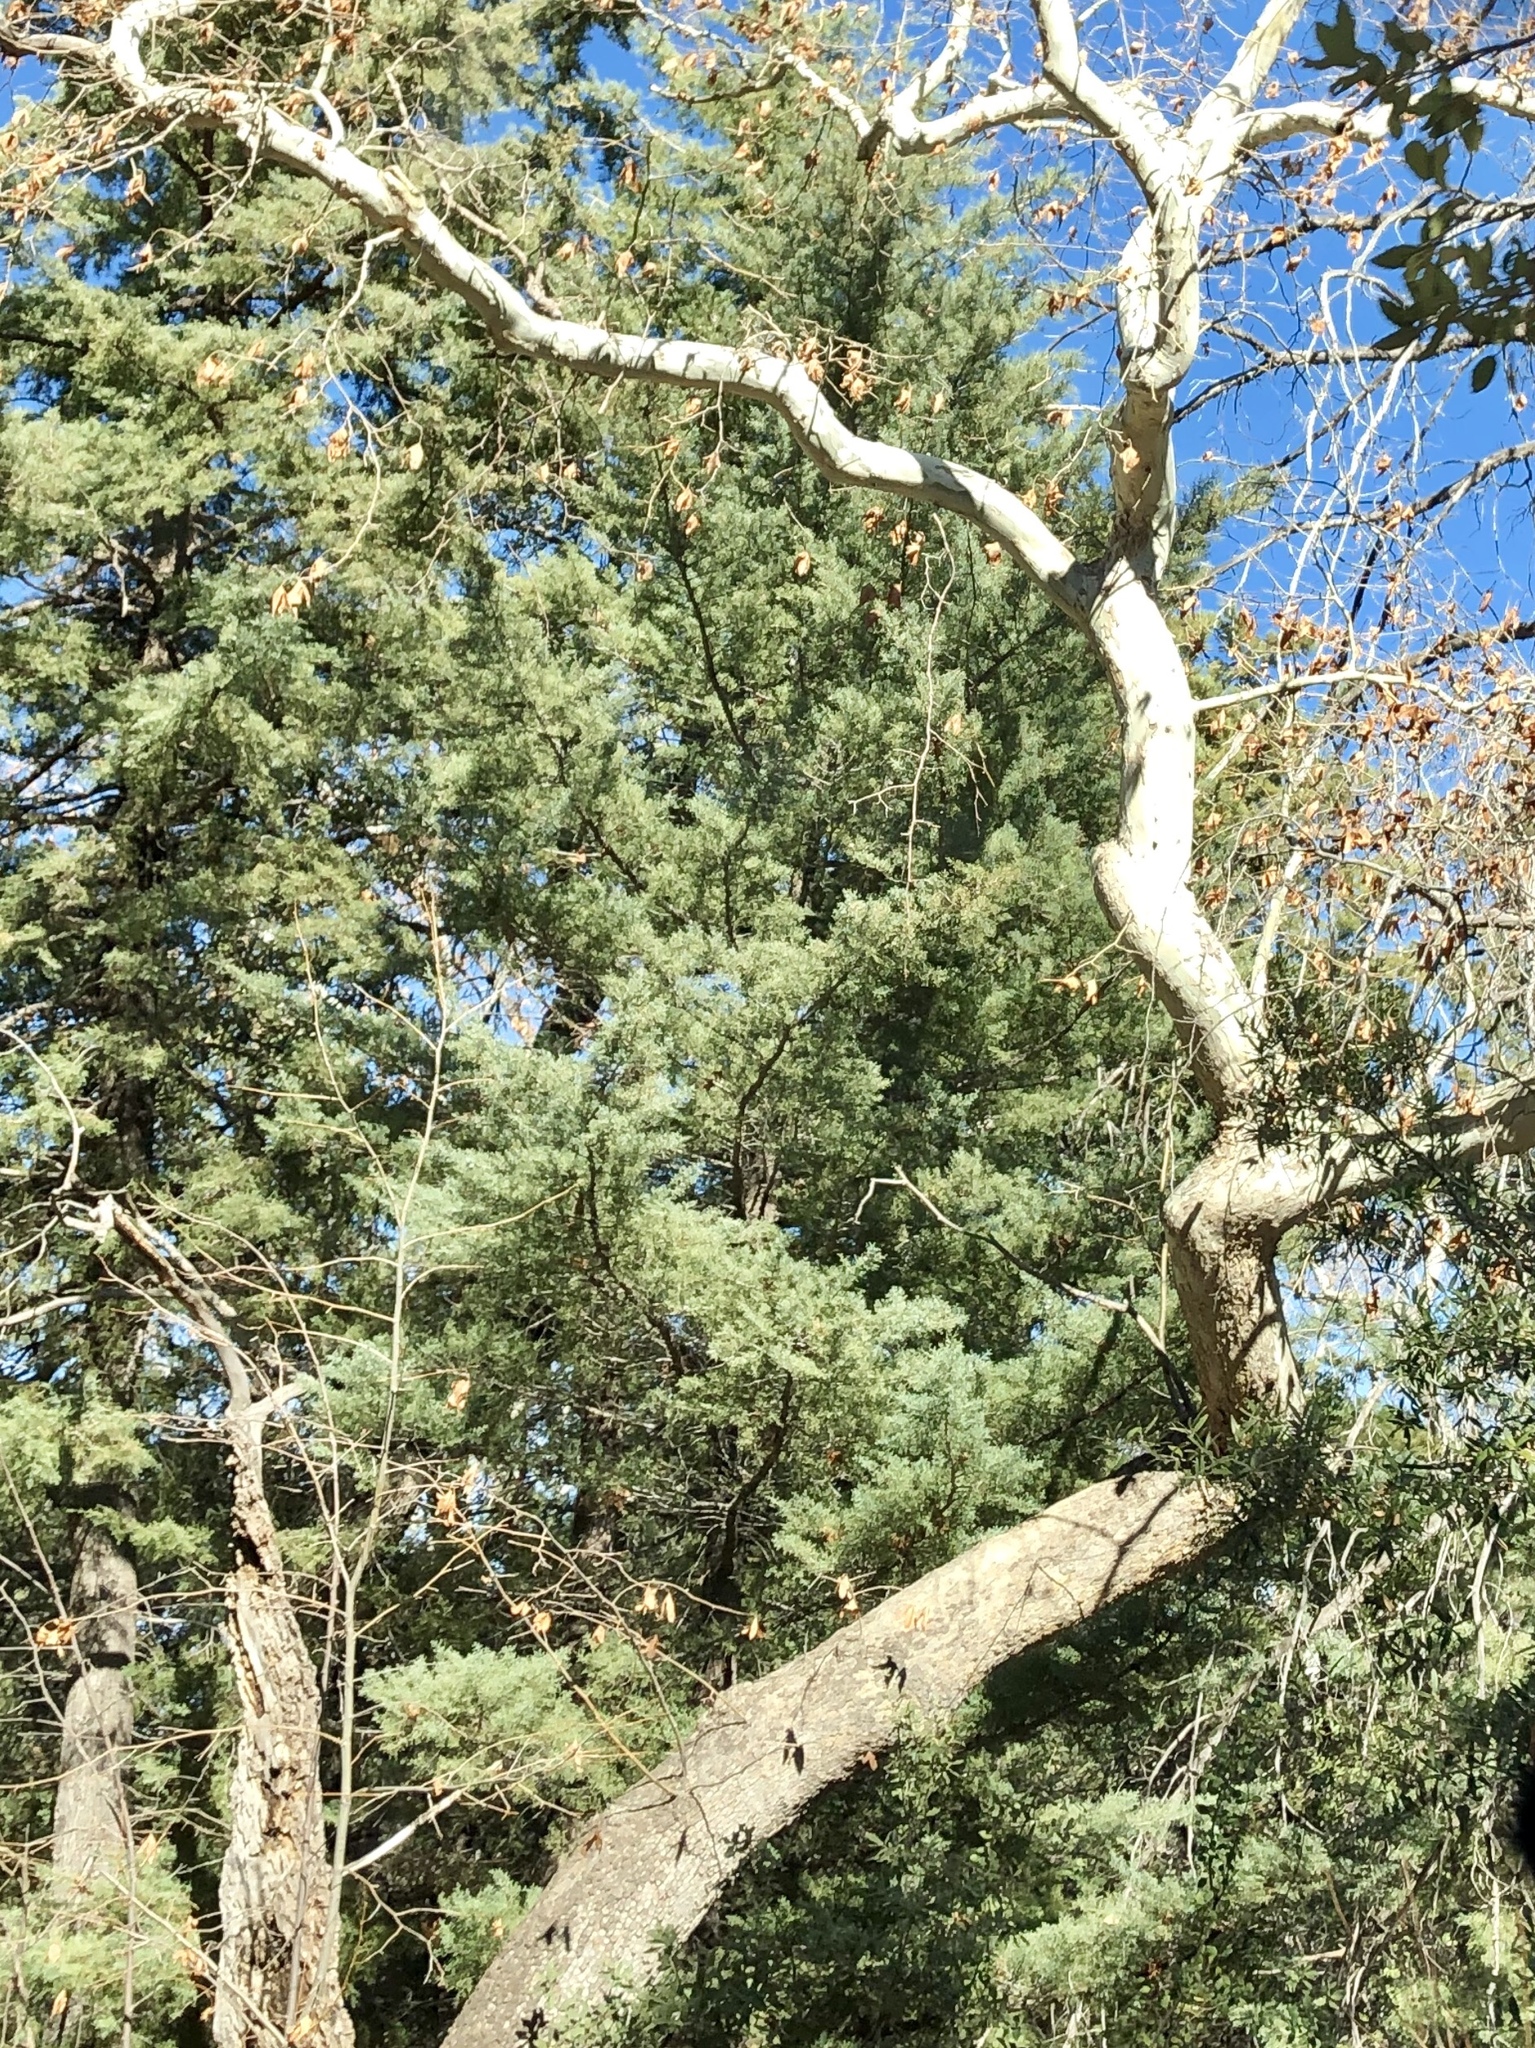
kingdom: Plantae
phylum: Tracheophyta
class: Magnoliopsida
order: Proteales
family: Platanaceae
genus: Platanus
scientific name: Platanus wrightii
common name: Arizona sycamore
